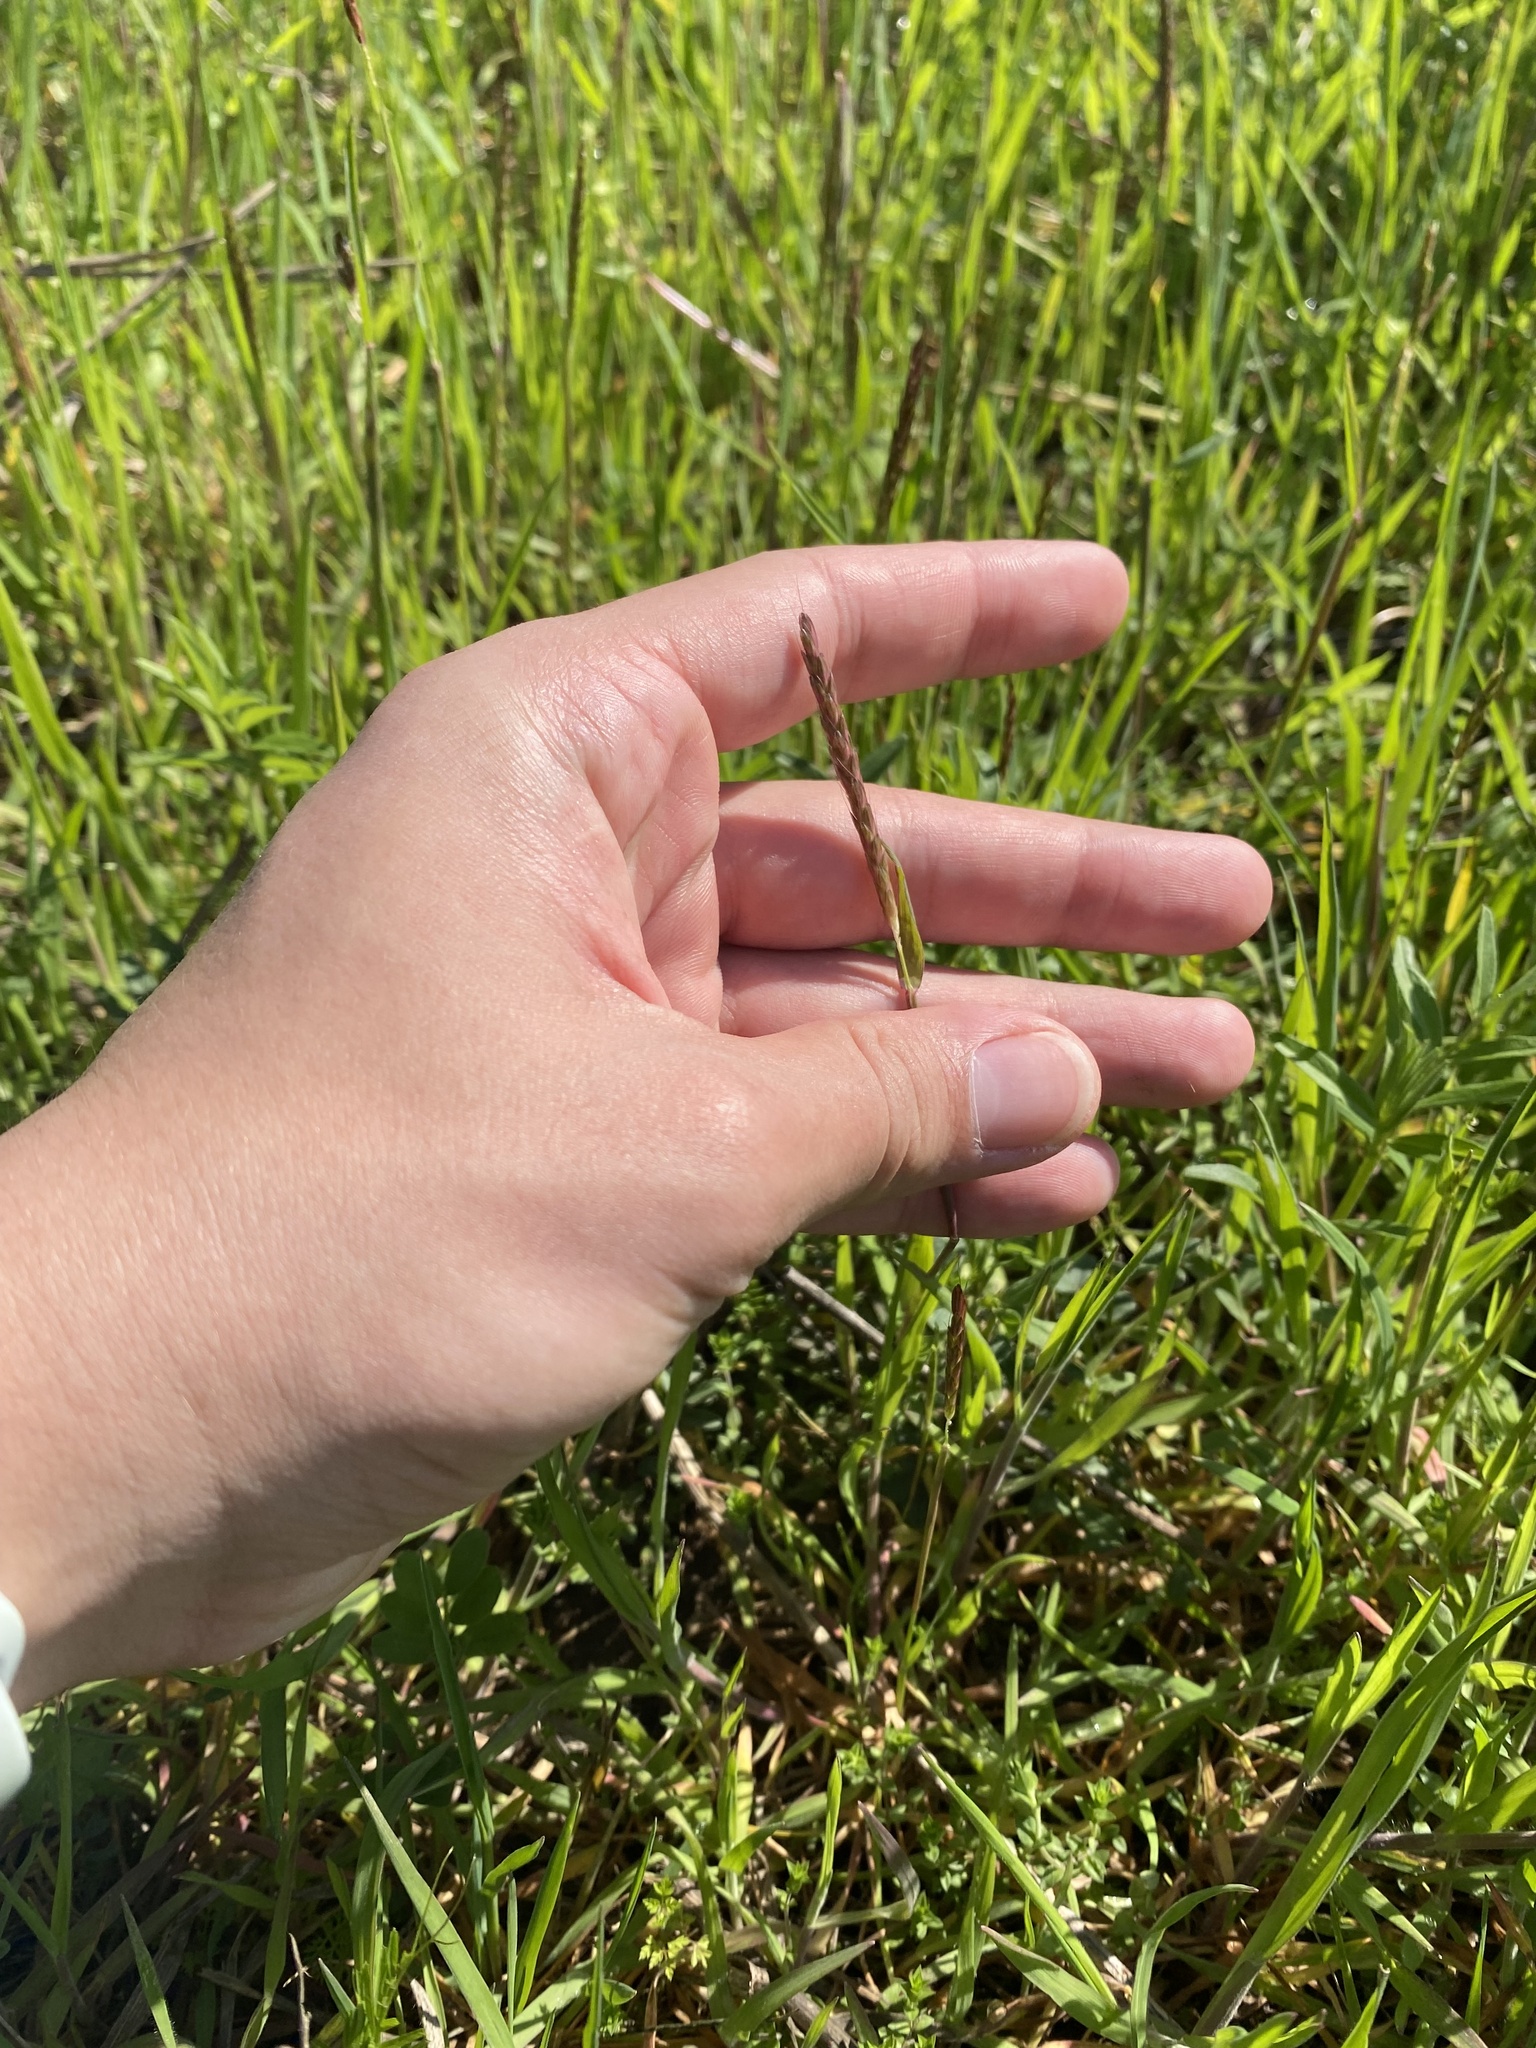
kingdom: Plantae
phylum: Tracheophyta
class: Liliopsida
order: Poales
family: Poaceae
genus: Alopecurus
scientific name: Alopecurus myosuroides
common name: Black-grass
